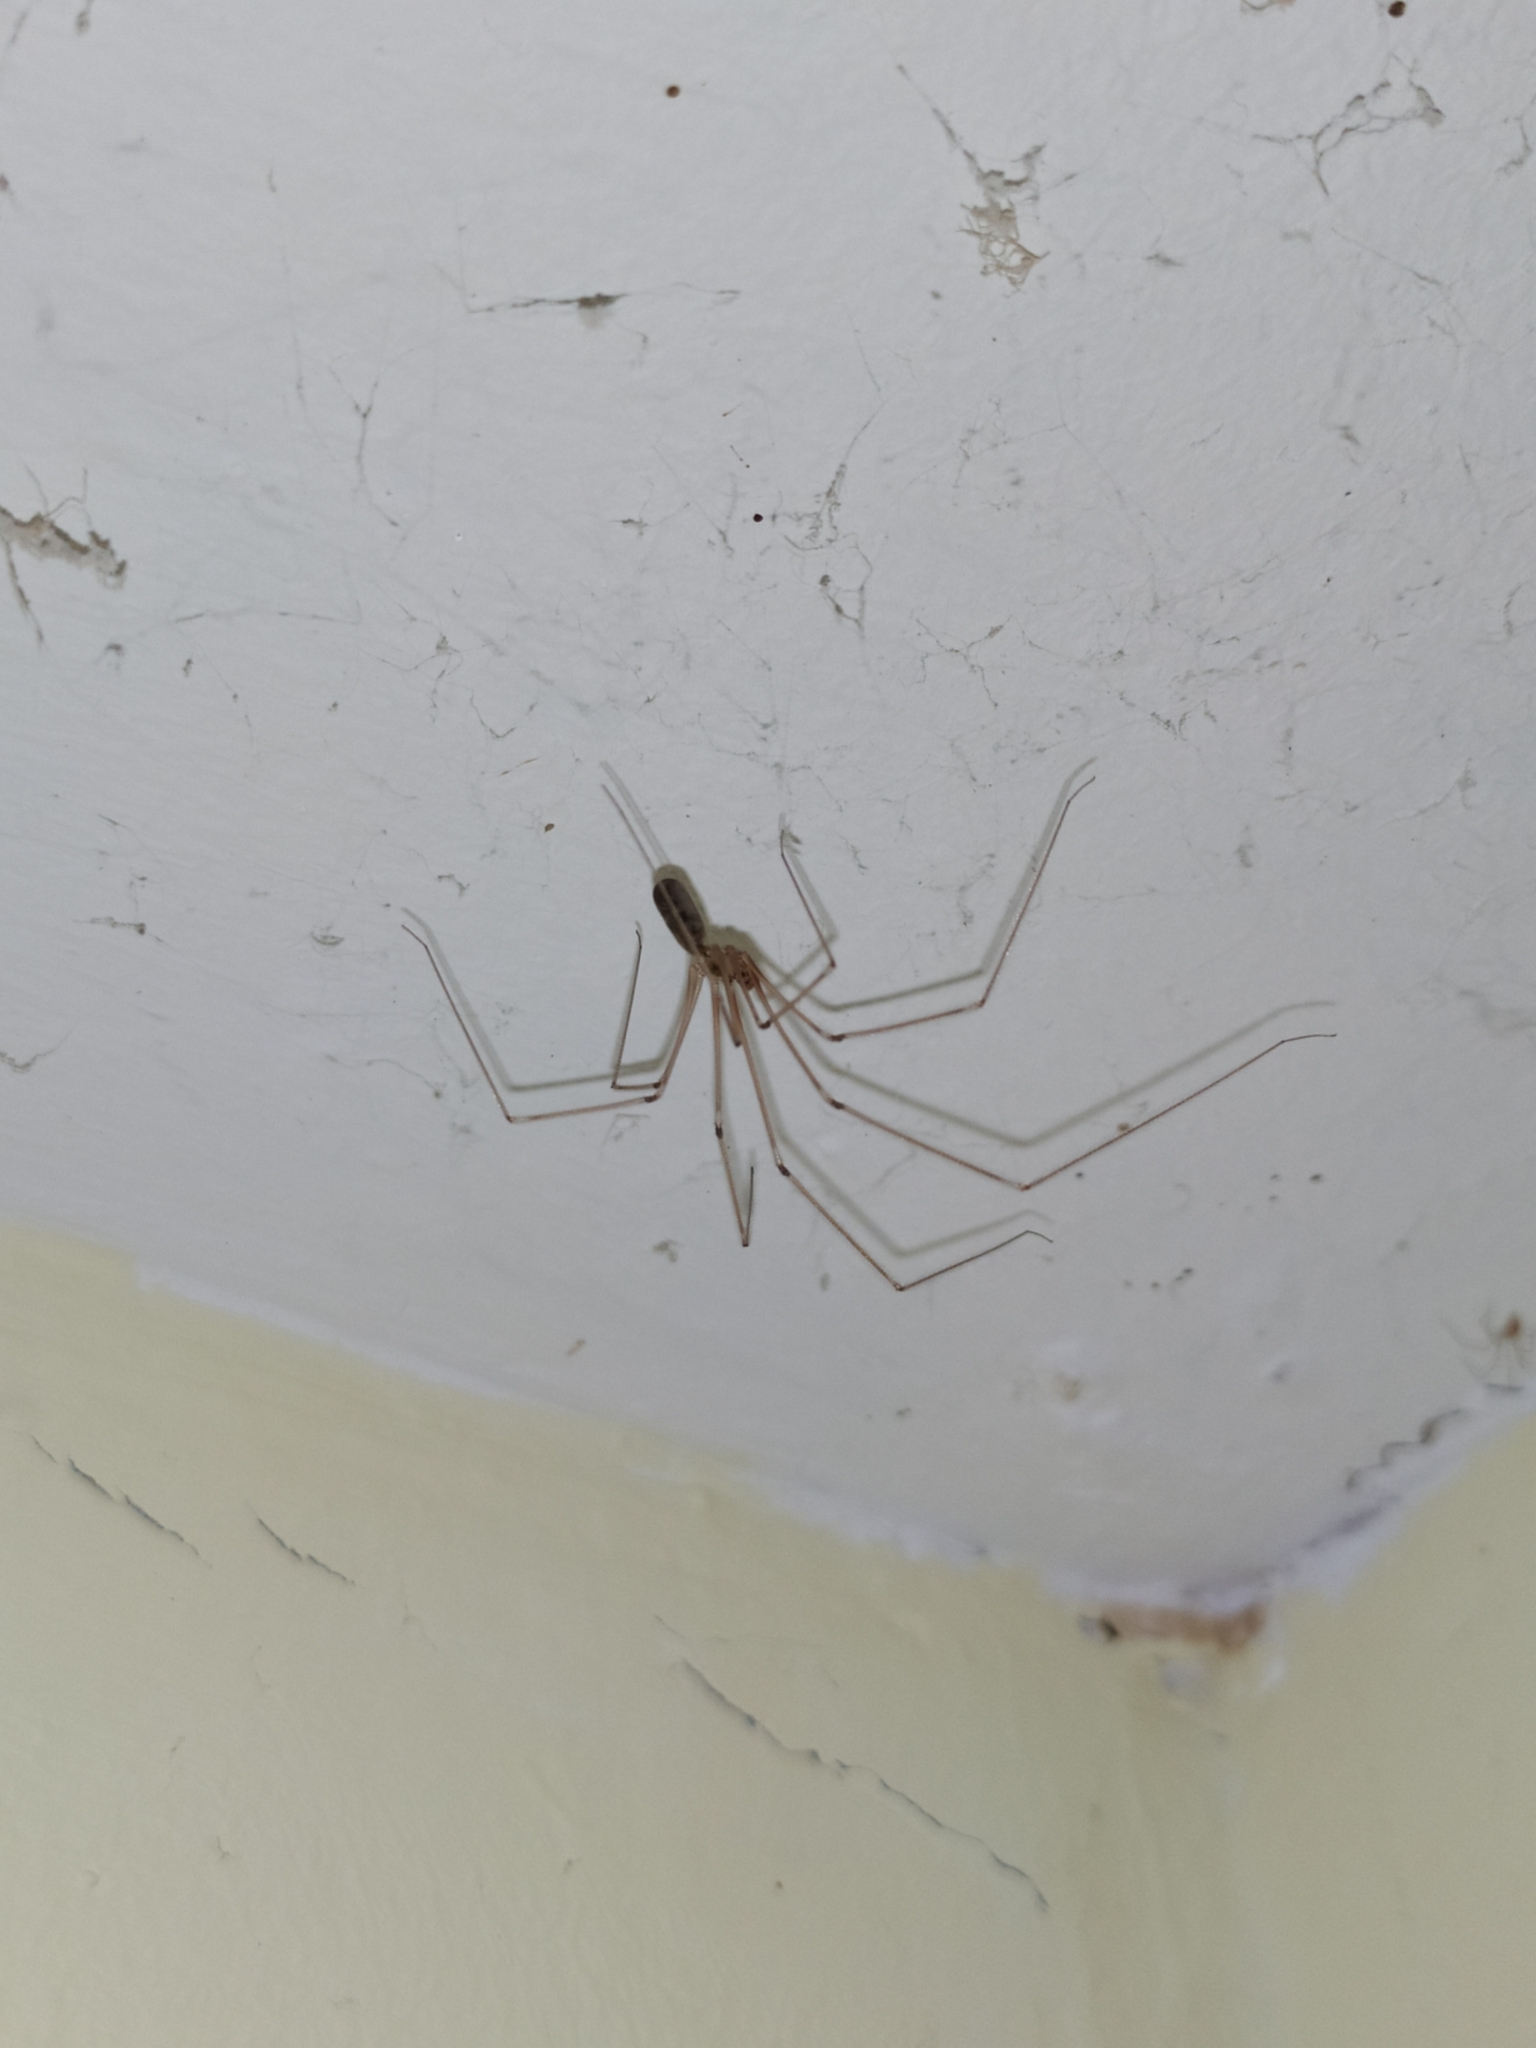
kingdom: Animalia
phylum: Arthropoda
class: Arachnida
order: Araneae
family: Pholcidae
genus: Pholcus
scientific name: Pholcus phalangioides
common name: Longbodied cellar spider
